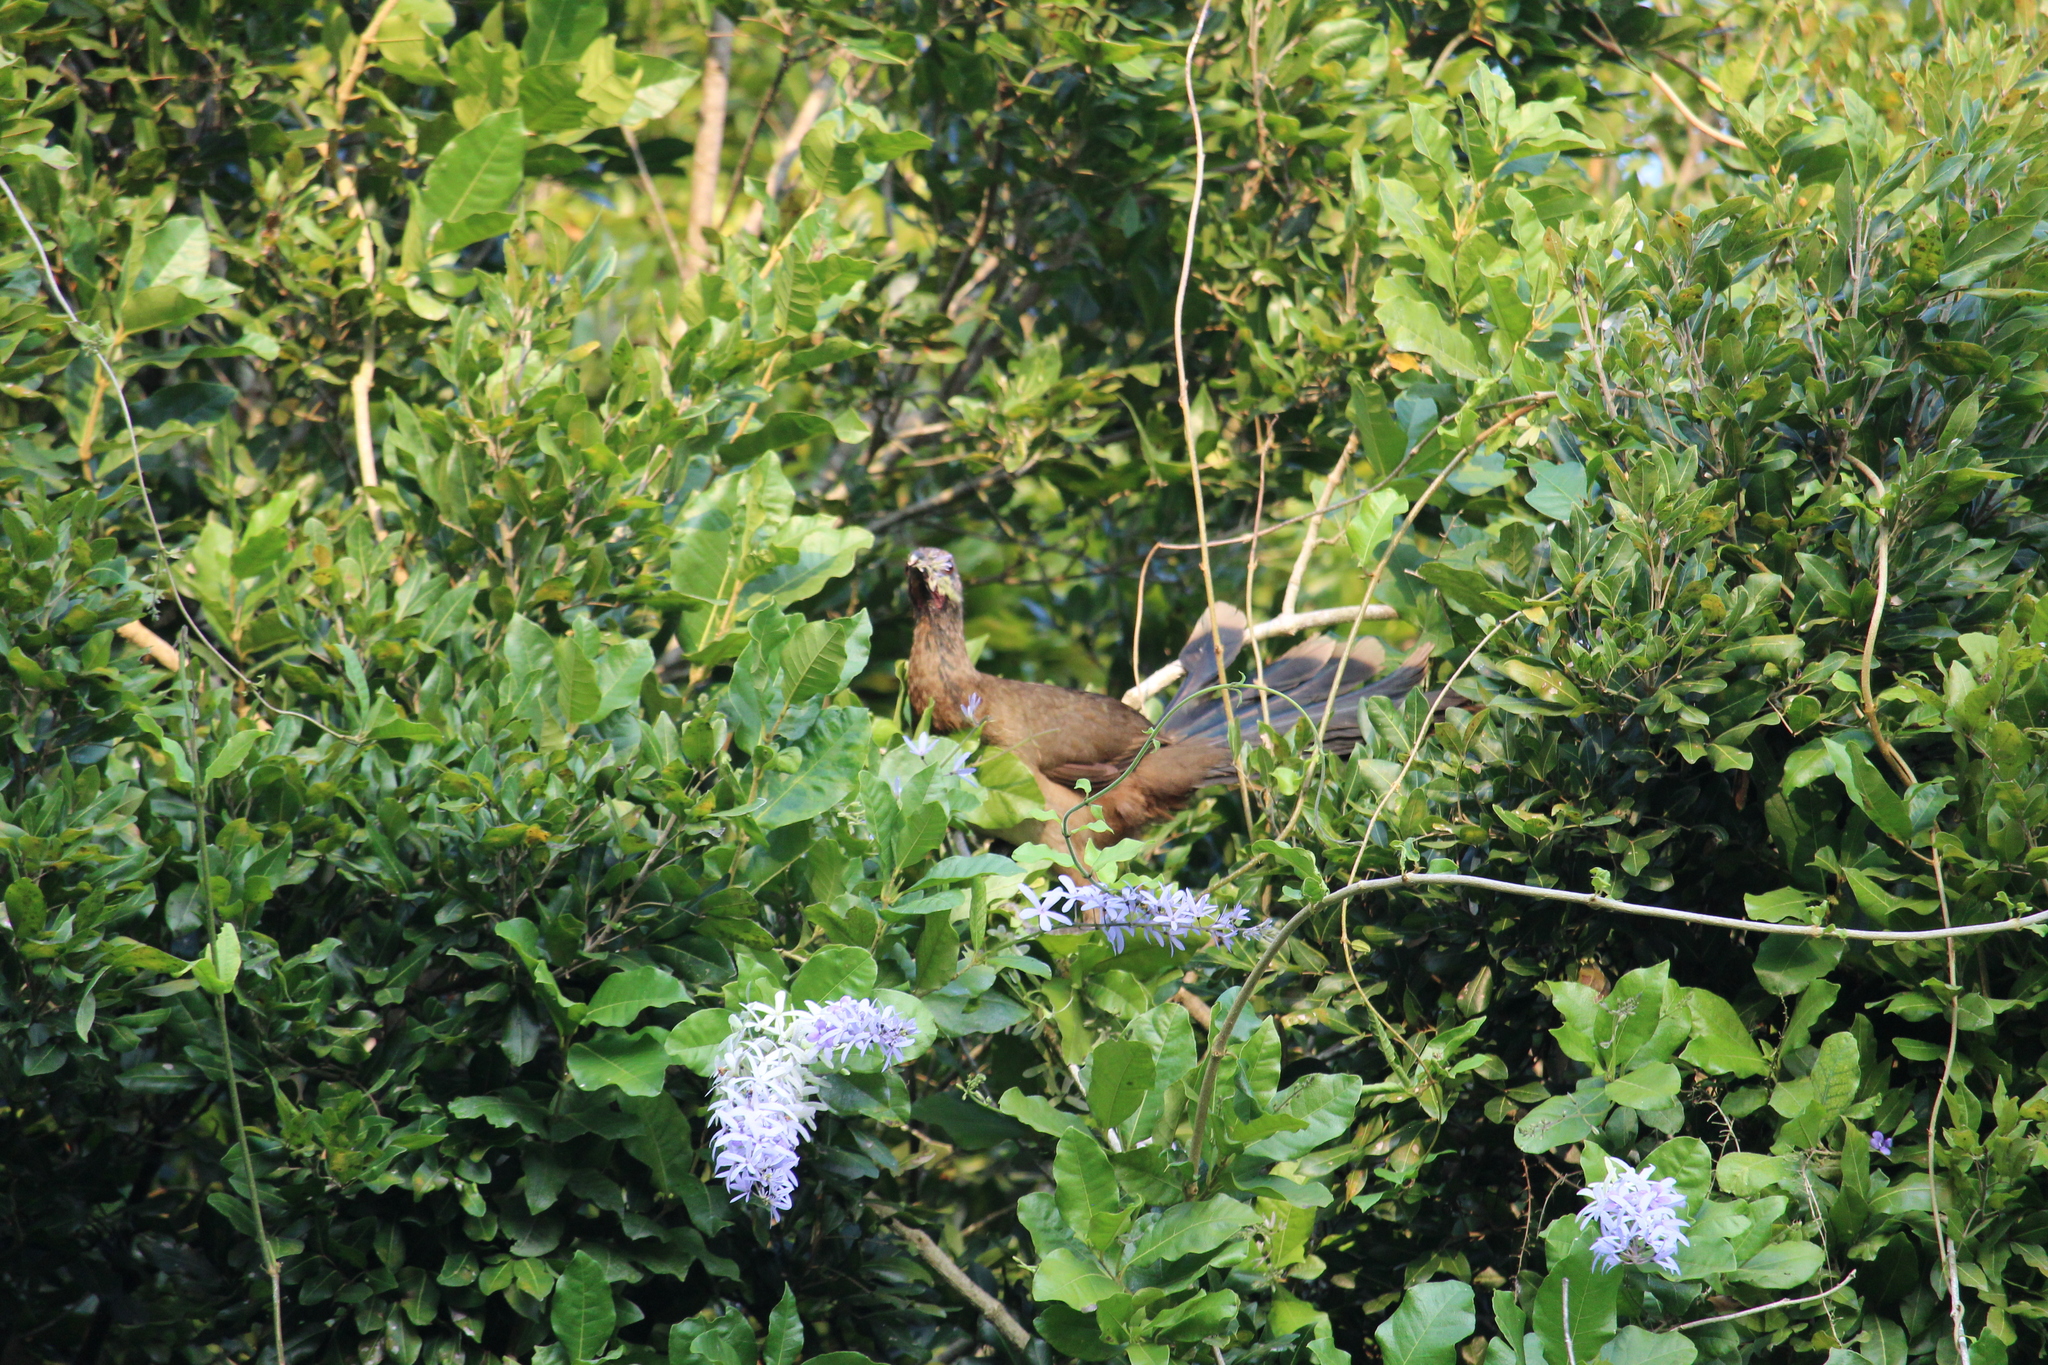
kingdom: Animalia
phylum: Chordata
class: Aves
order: Galliformes
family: Cracidae
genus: Ortalis
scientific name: Ortalis vetula
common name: Plain chachalaca
